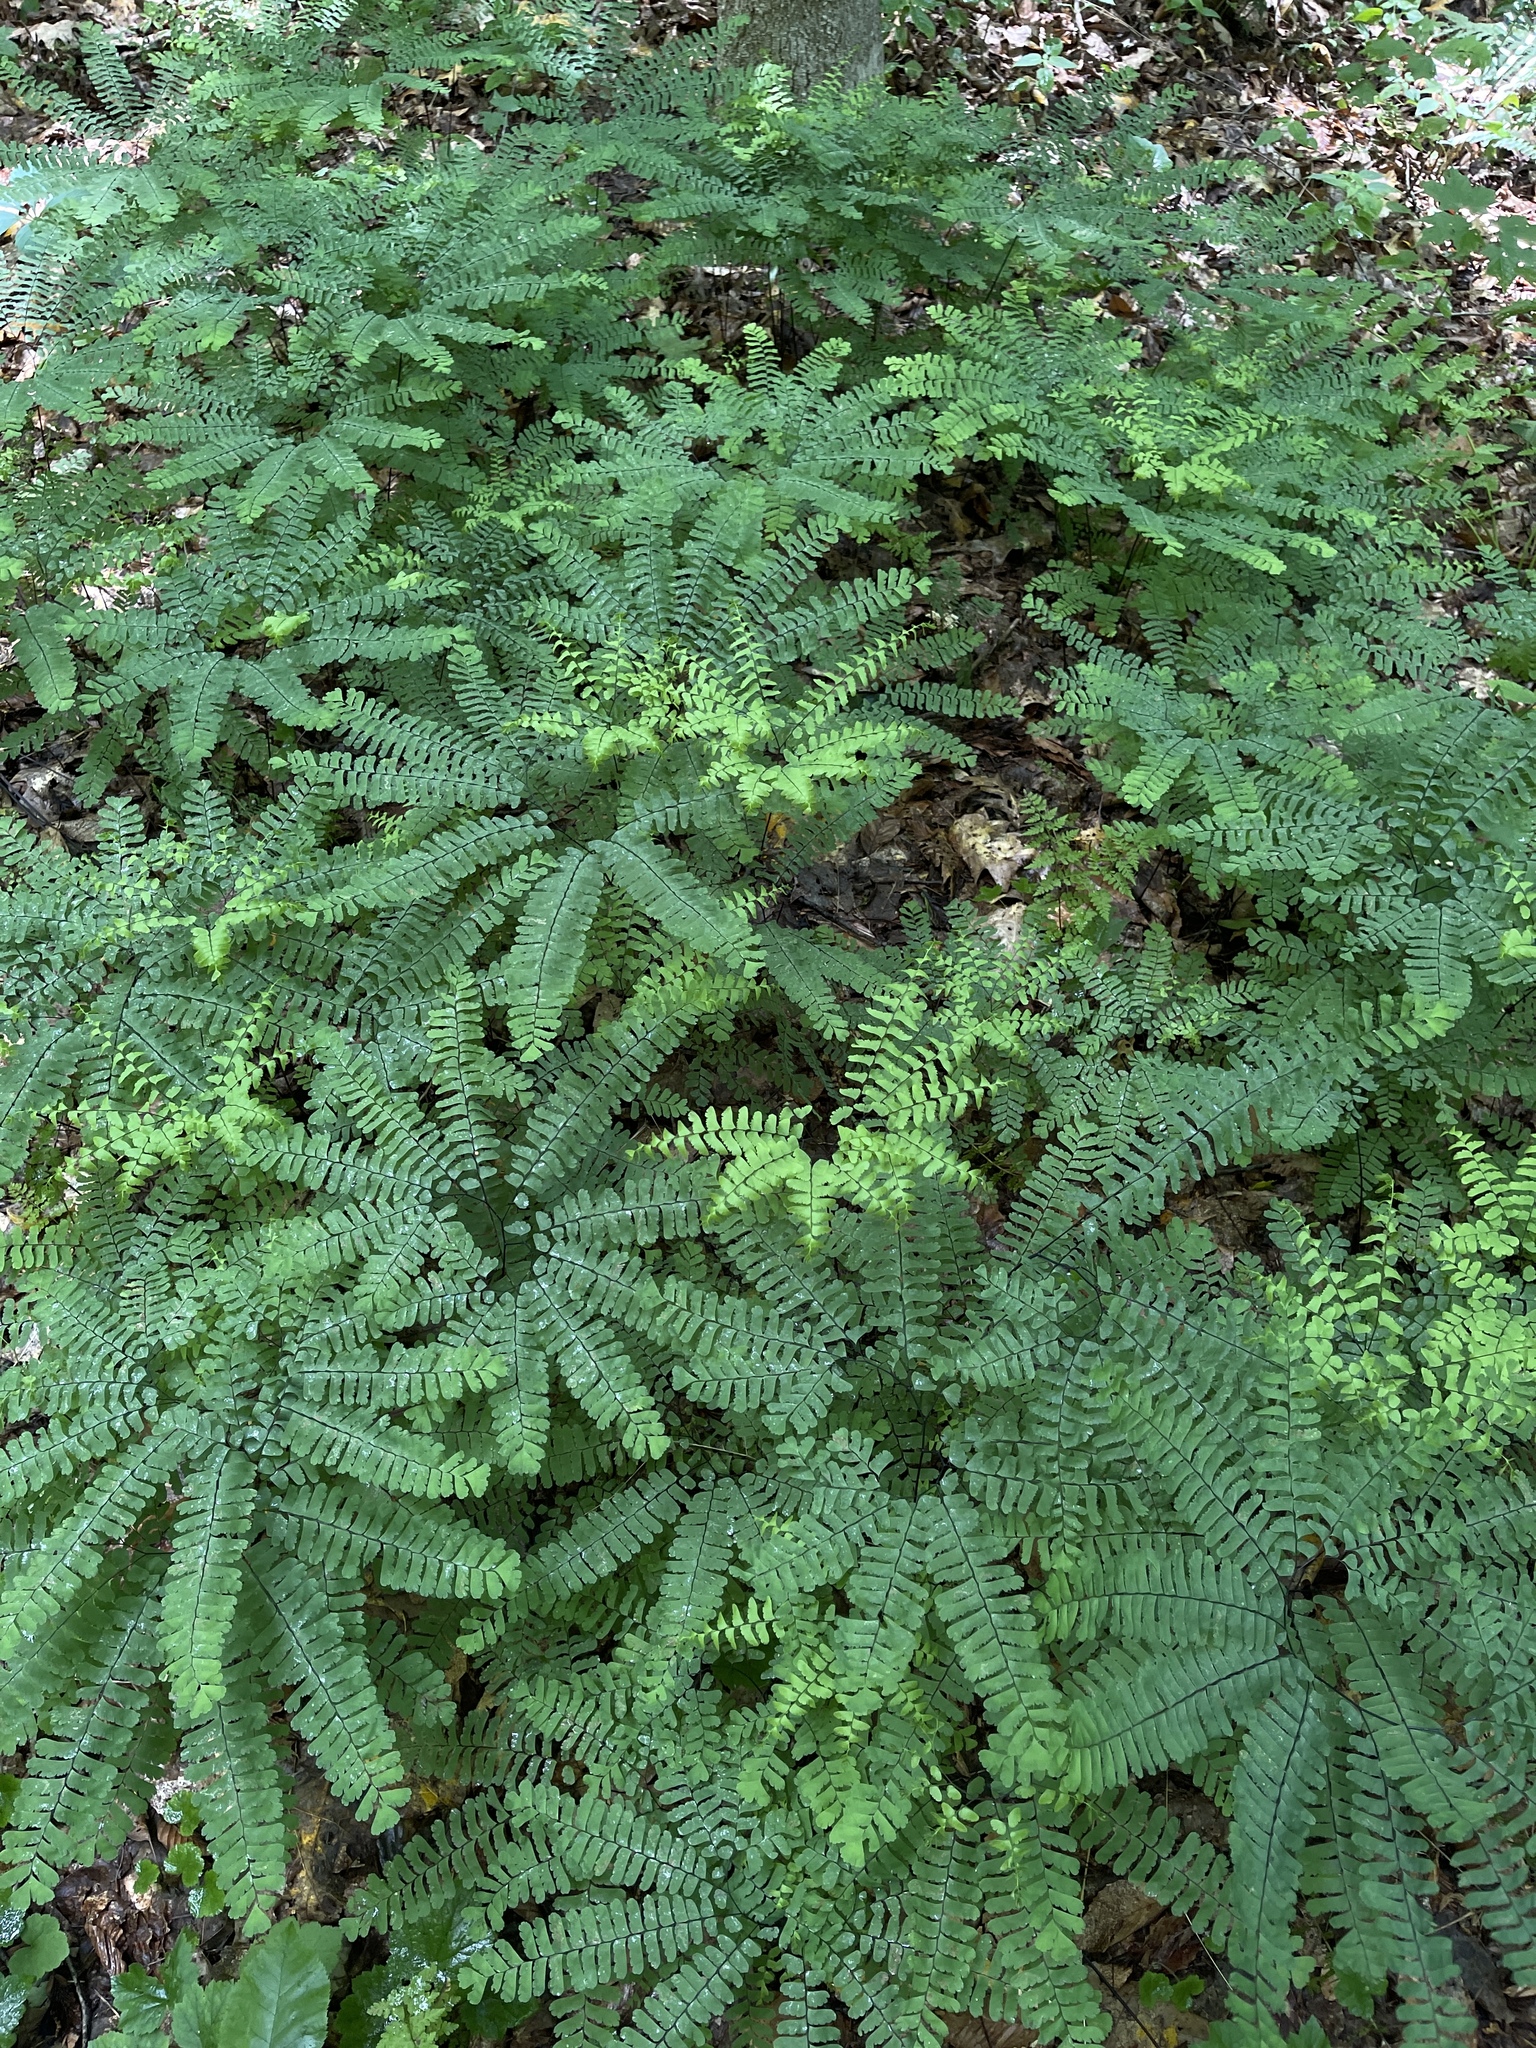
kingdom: Plantae
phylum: Tracheophyta
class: Polypodiopsida
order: Polypodiales
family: Pteridaceae
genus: Adiantum
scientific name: Adiantum pedatum
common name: Five-finger fern
